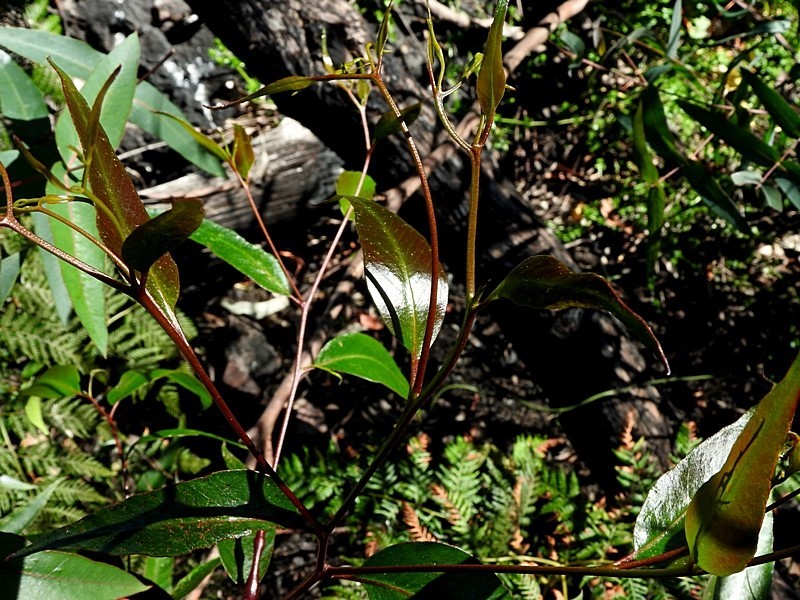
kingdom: Plantae
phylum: Tracheophyta
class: Magnoliopsida
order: Myrtales
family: Myrtaceae
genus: Eucalyptus
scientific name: Eucalyptus muelleriana
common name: Yellow-stringybark
